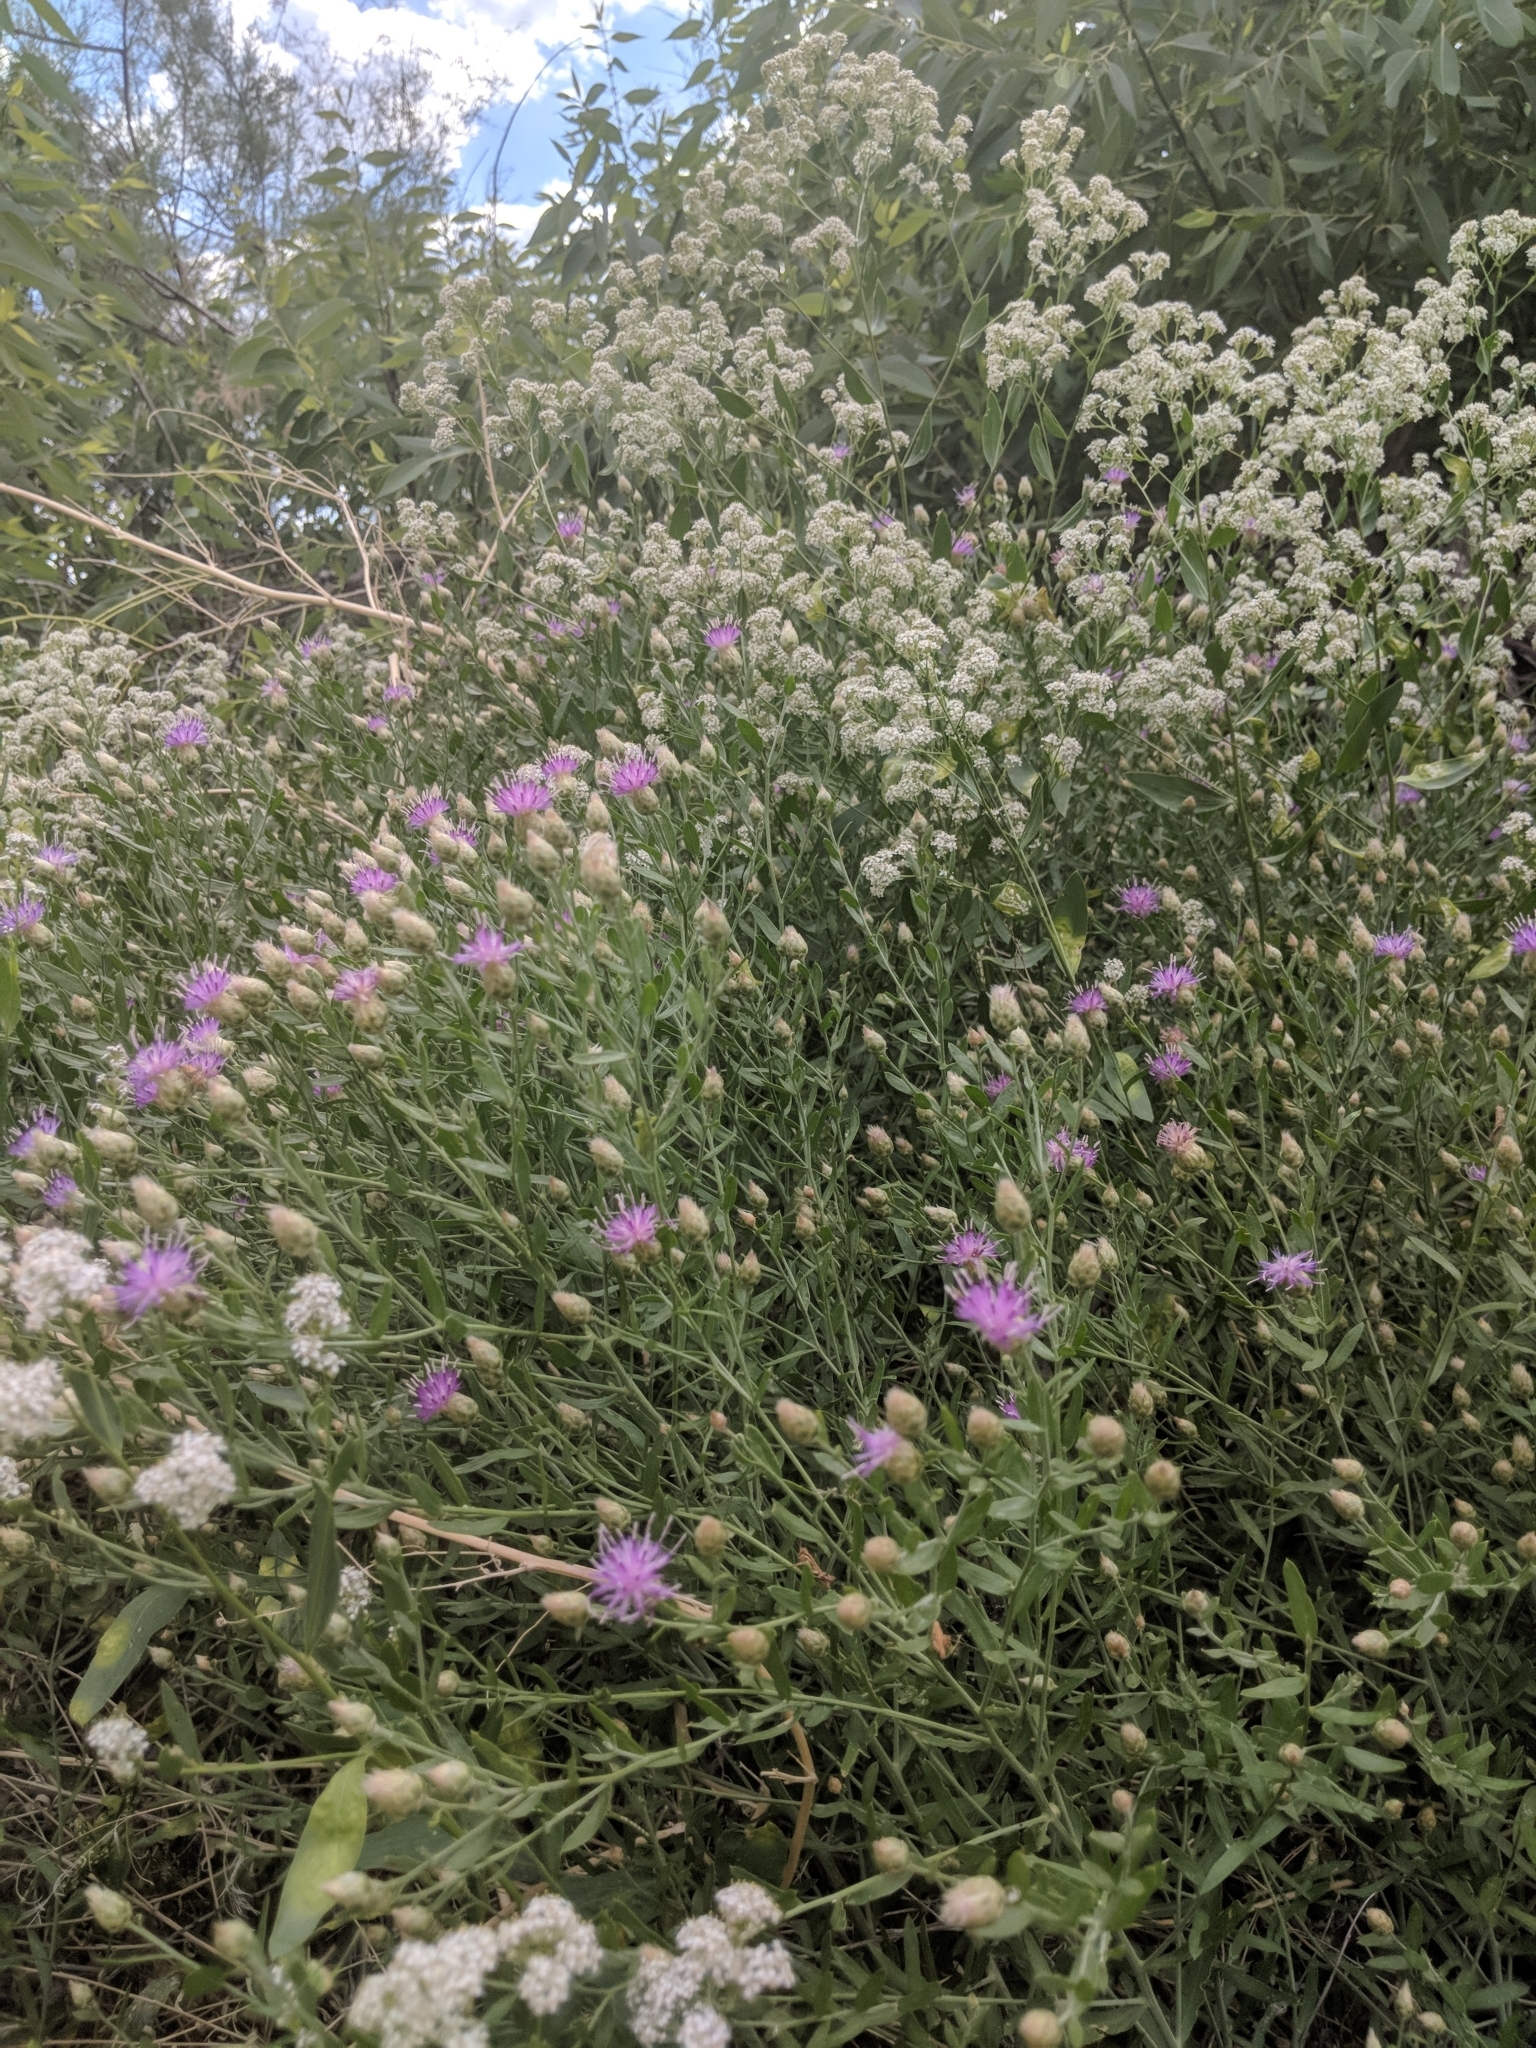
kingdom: Plantae
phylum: Tracheophyta
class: Magnoliopsida
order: Asterales
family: Asteraceae
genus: Leuzea
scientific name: Leuzea repens
